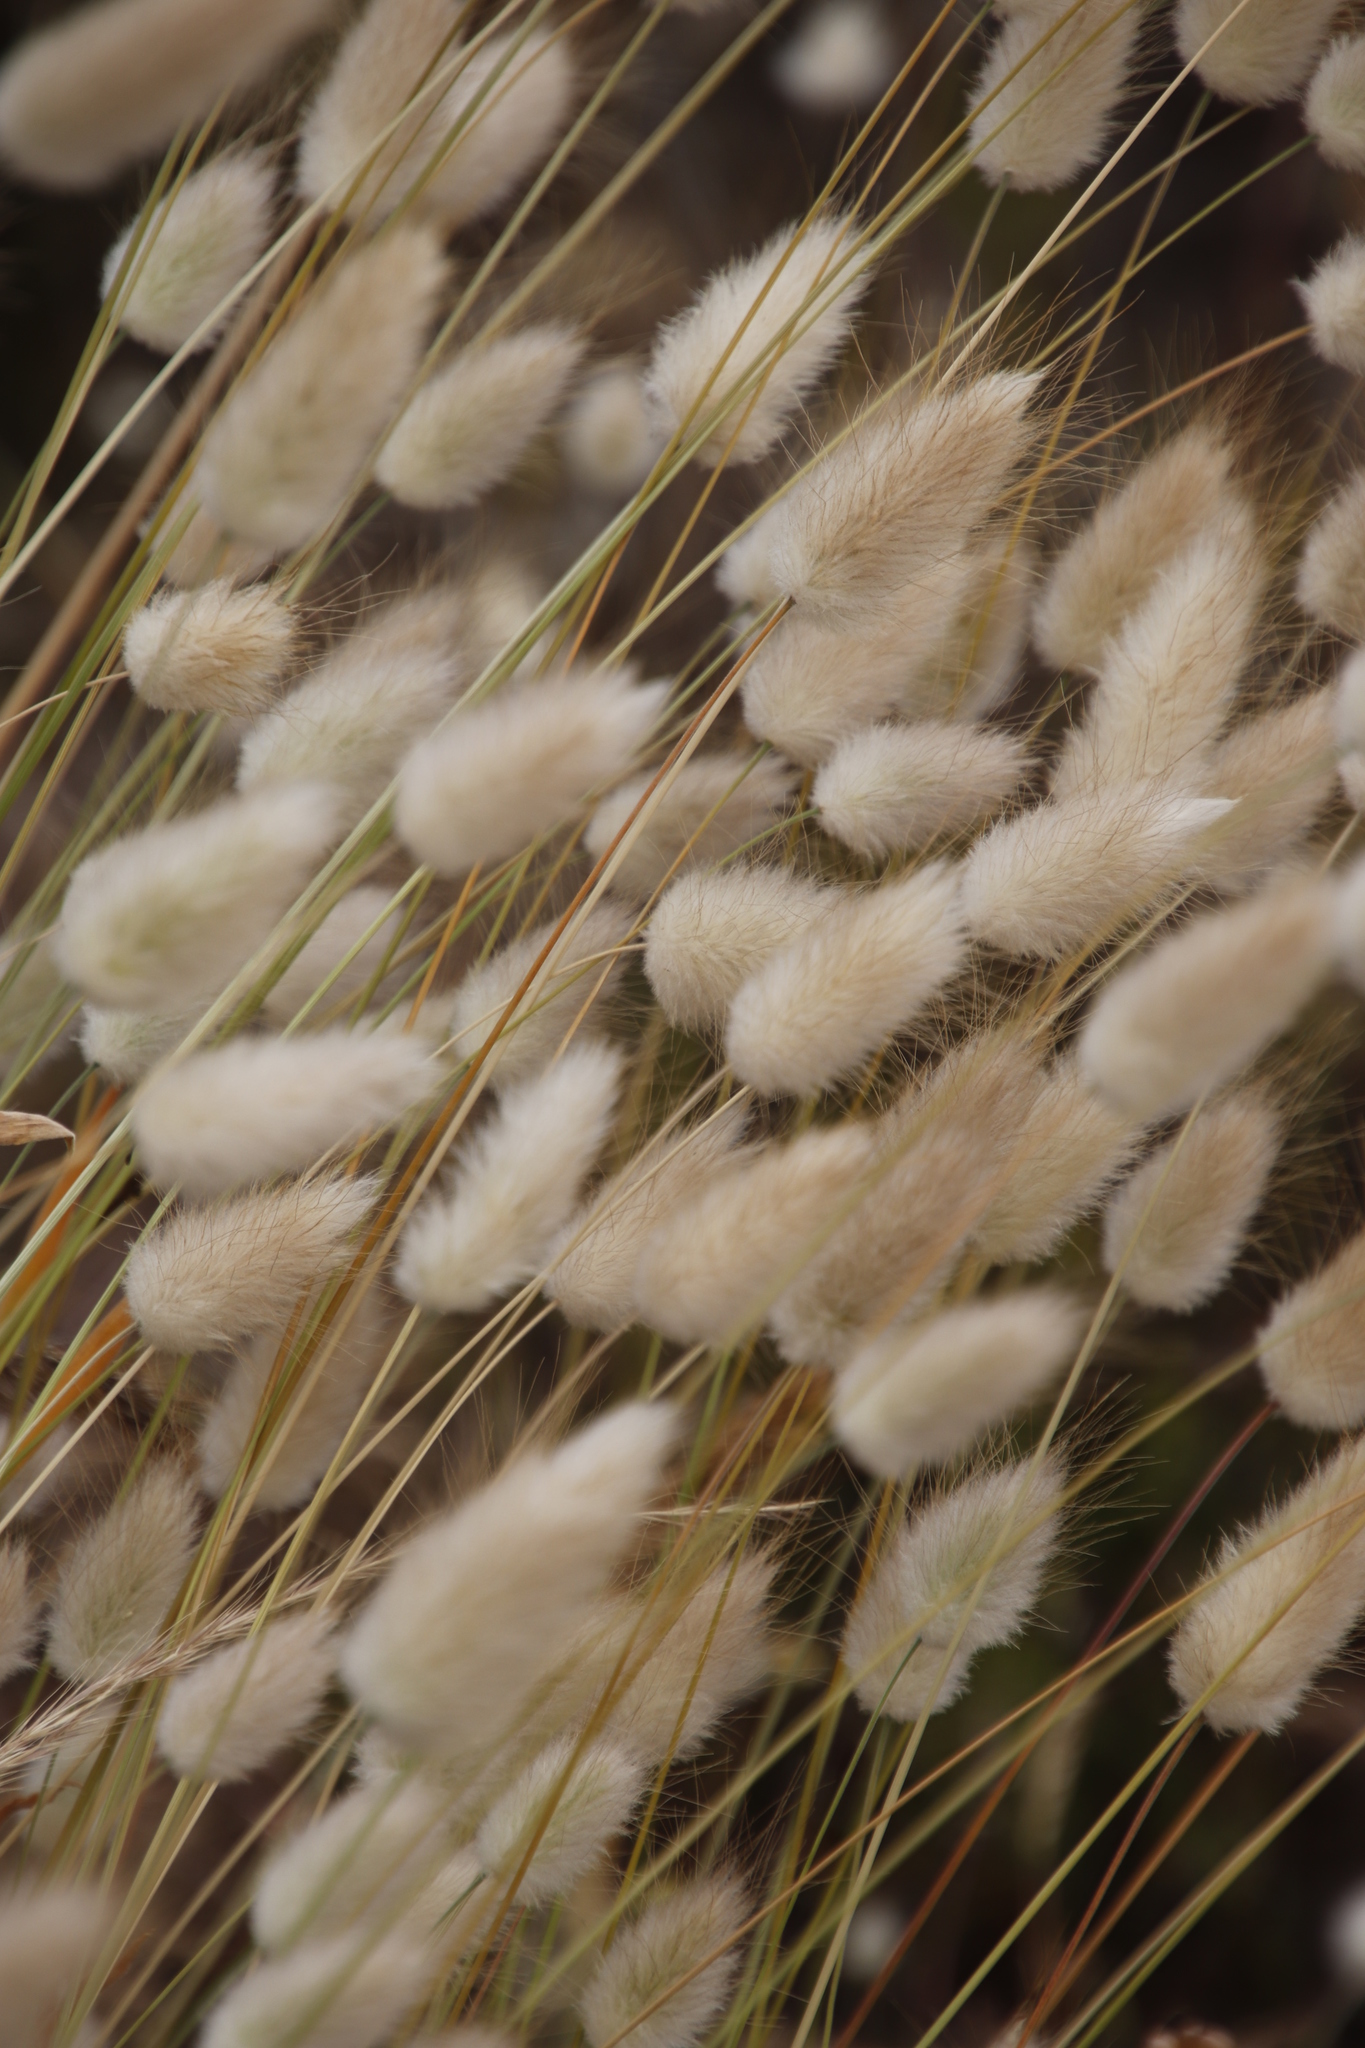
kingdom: Plantae
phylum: Tracheophyta
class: Liliopsida
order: Poales
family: Poaceae
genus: Lagurus
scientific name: Lagurus ovatus
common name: Hare's-tail
